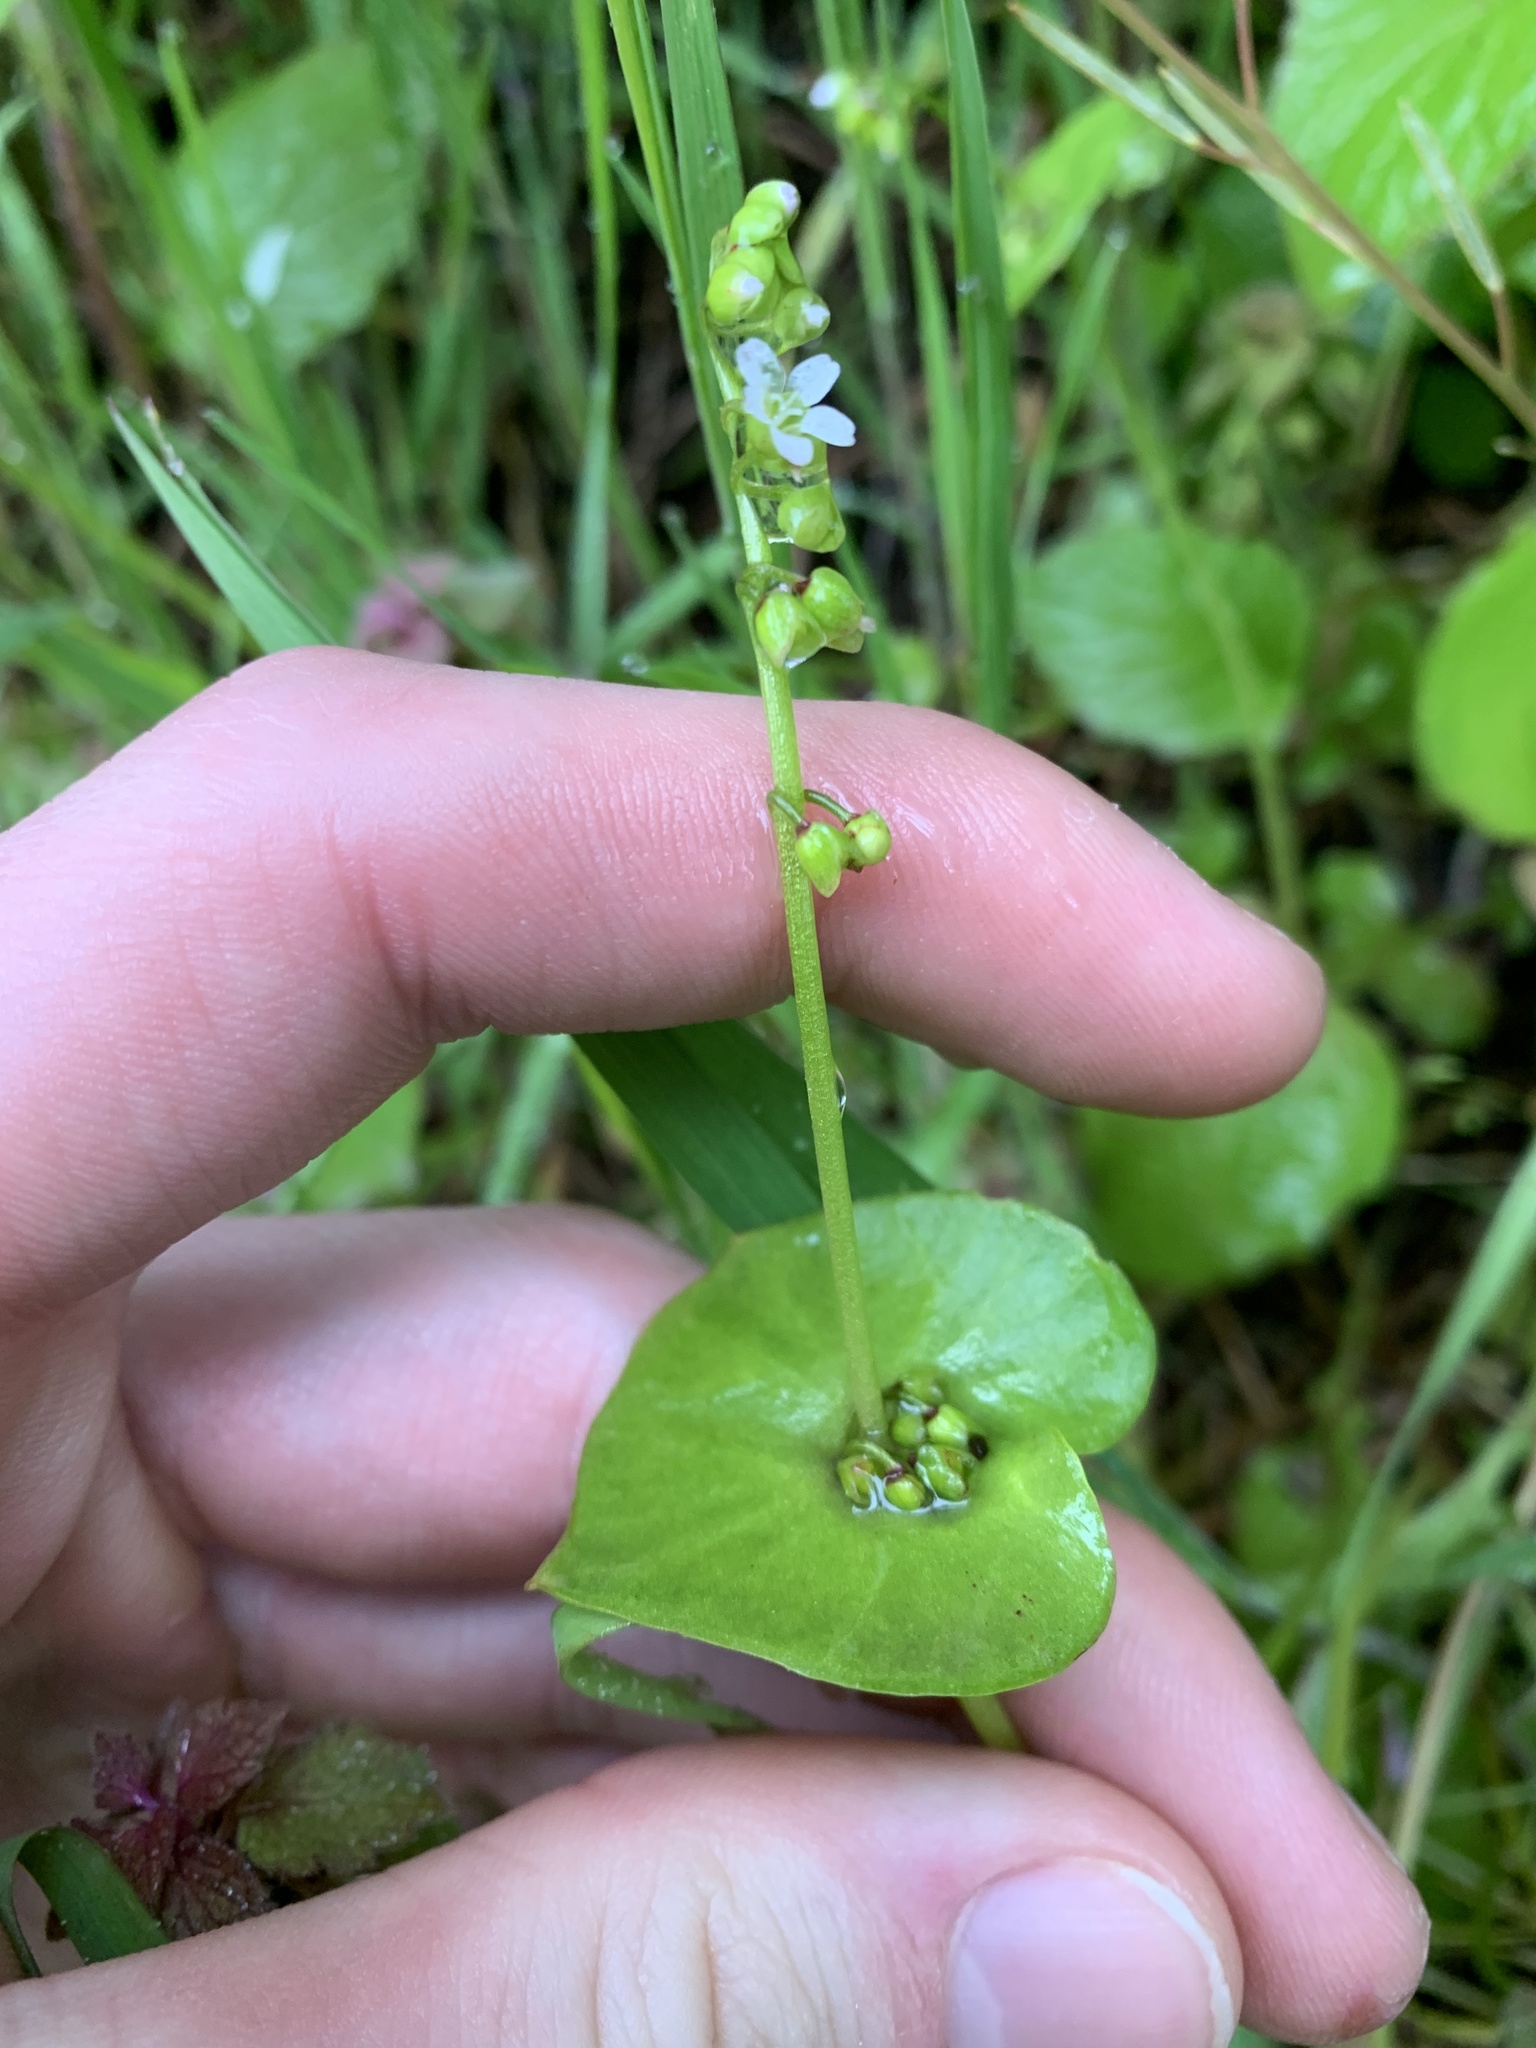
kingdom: Plantae
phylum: Tracheophyta
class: Magnoliopsida
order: Caryophyllales
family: Montiaceae
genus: Claytonia
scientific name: Claytonia perfoliata
